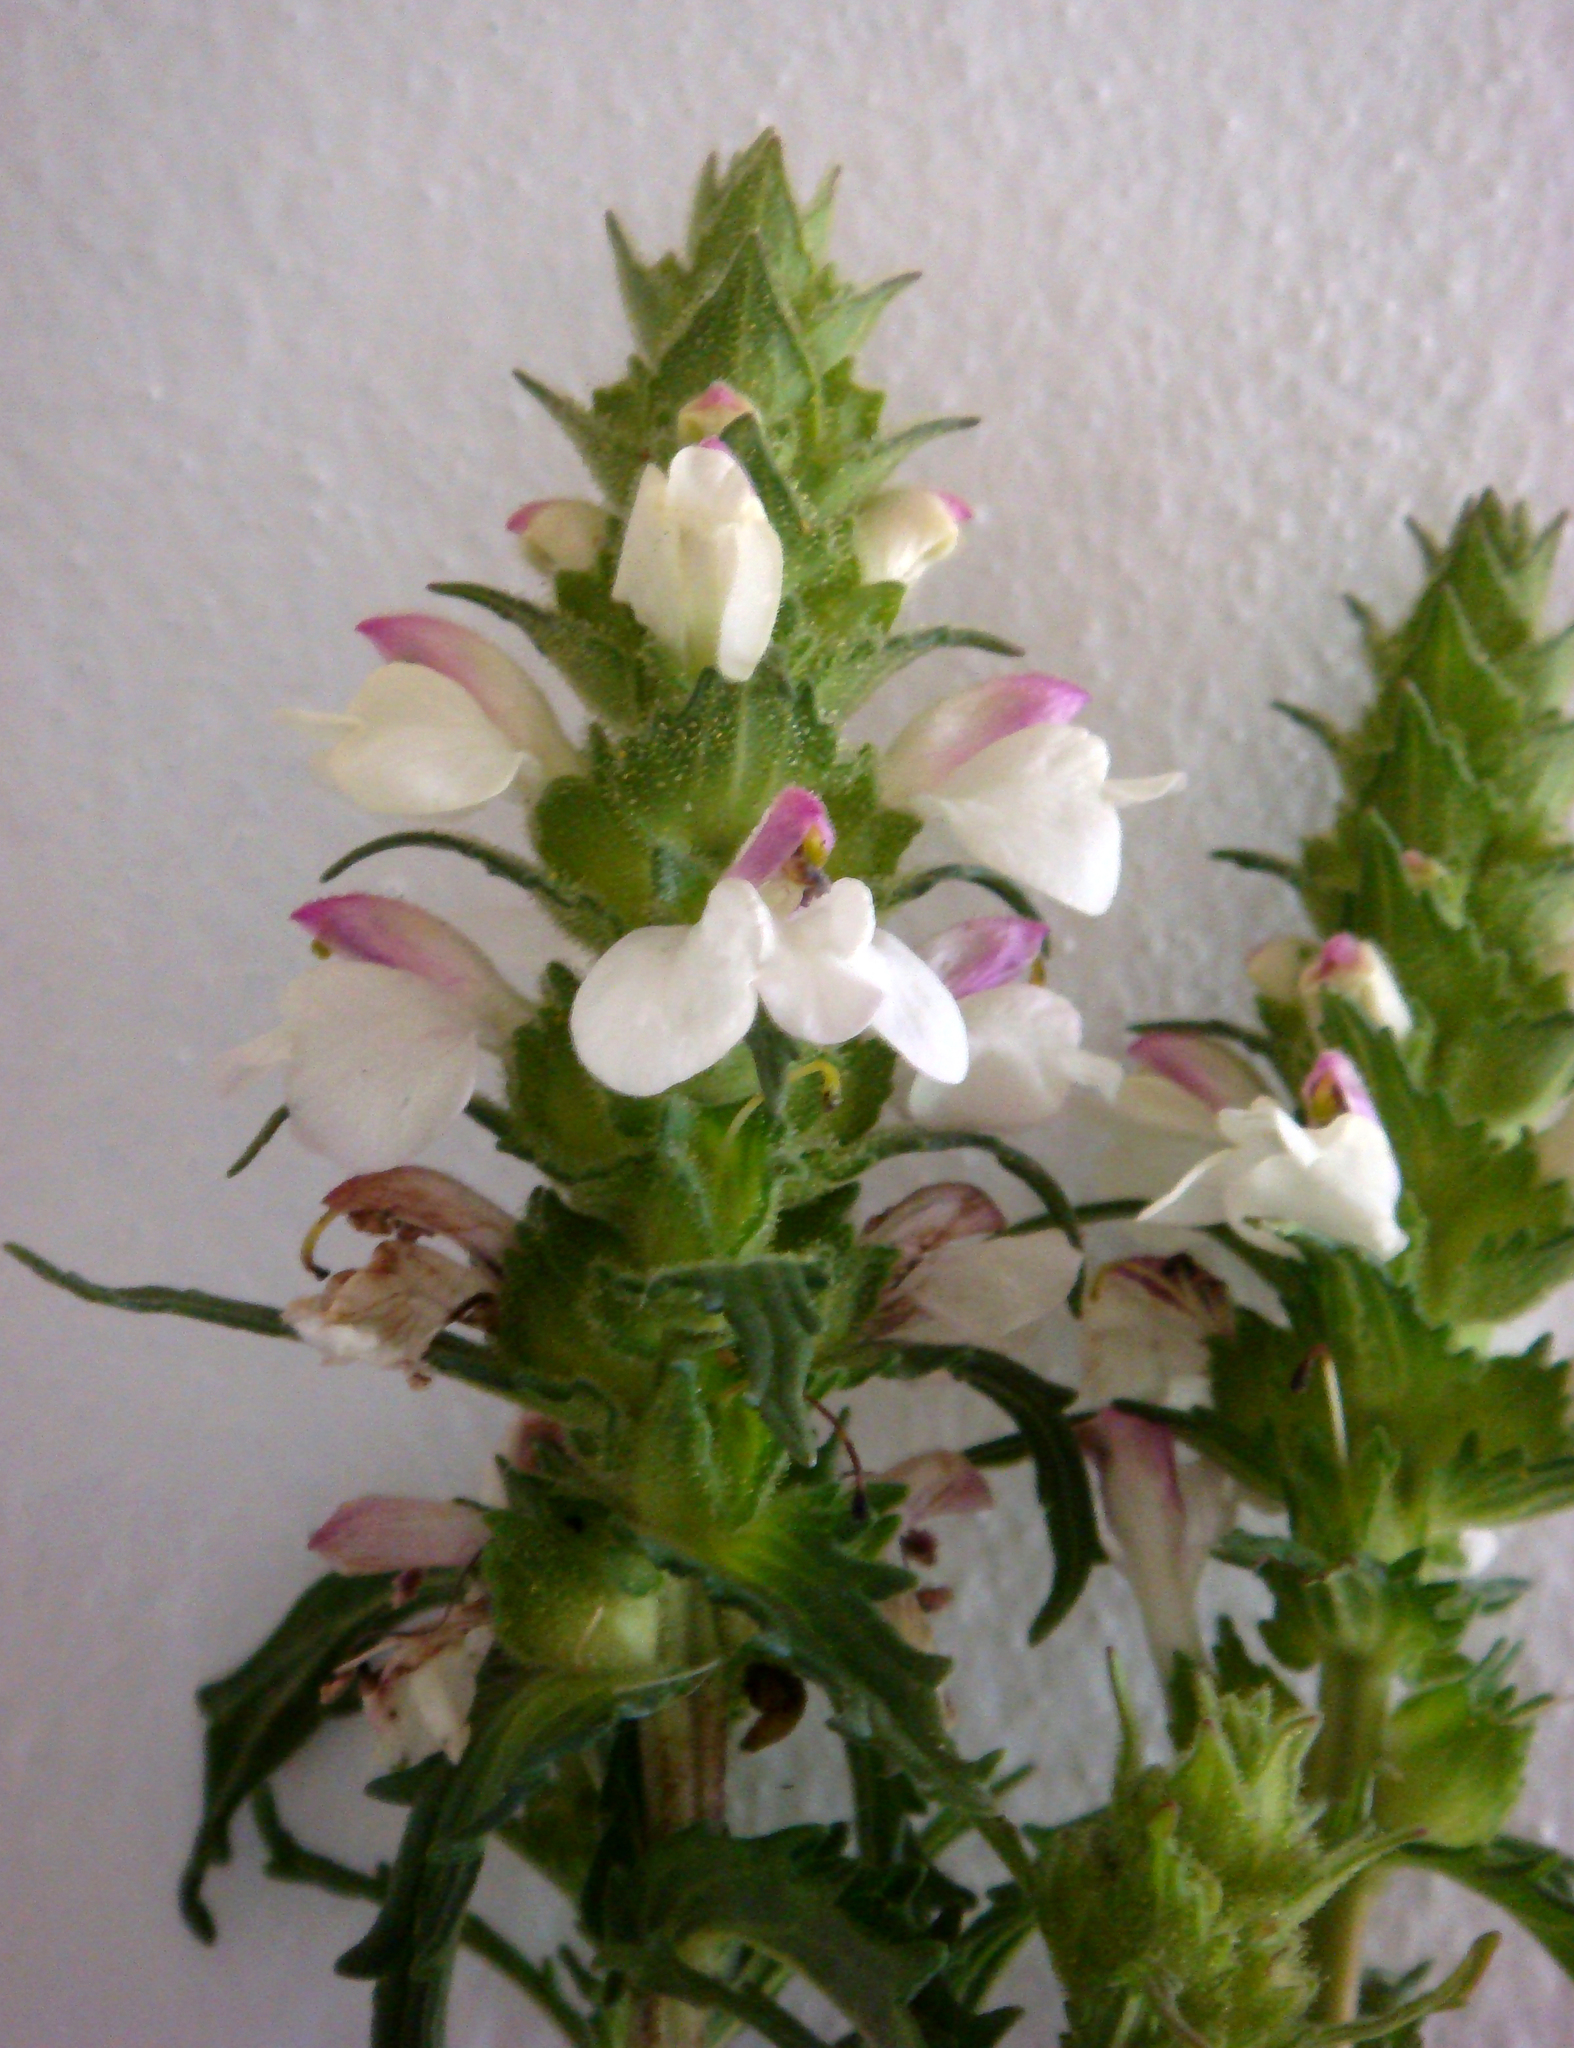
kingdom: Plantae
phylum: Tracheophyta
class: Magnoliopsida
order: Lamiales
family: Orobanchaceae
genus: Bellardia
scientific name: Bellardia trixago
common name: Mediterranean lineseed
